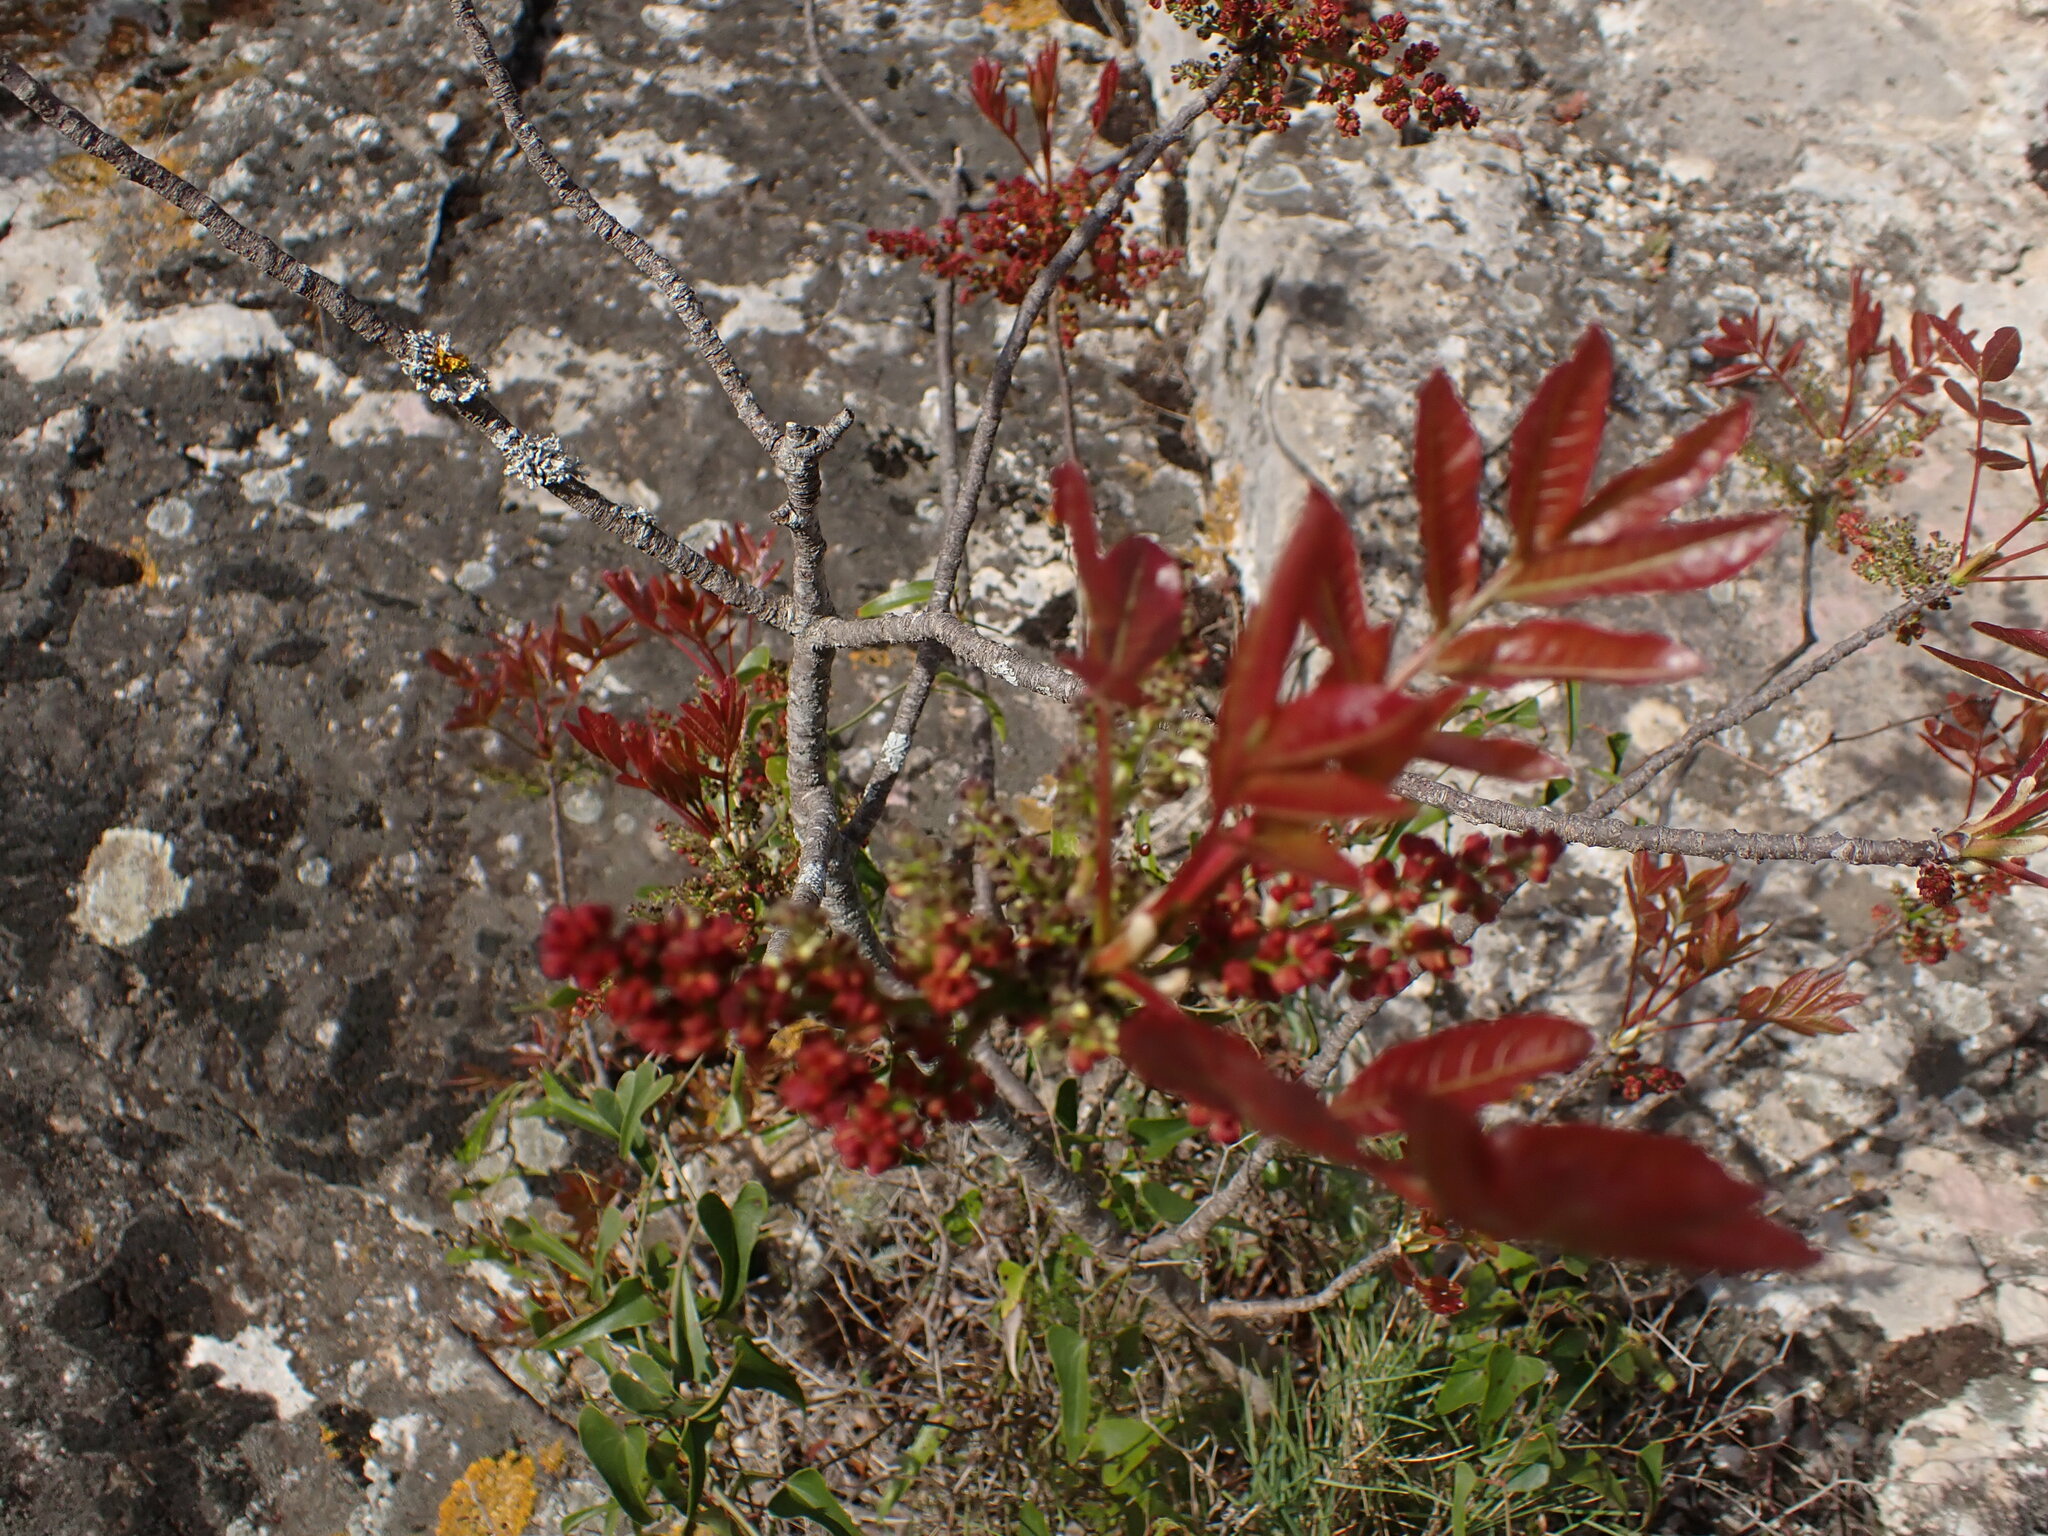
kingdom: Plantae
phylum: Tracheophyta
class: Magnoliopsida
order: Sapindales
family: Anacardiaceae
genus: Pistacia
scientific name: Pistacia terebinthus
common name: Terebinth
